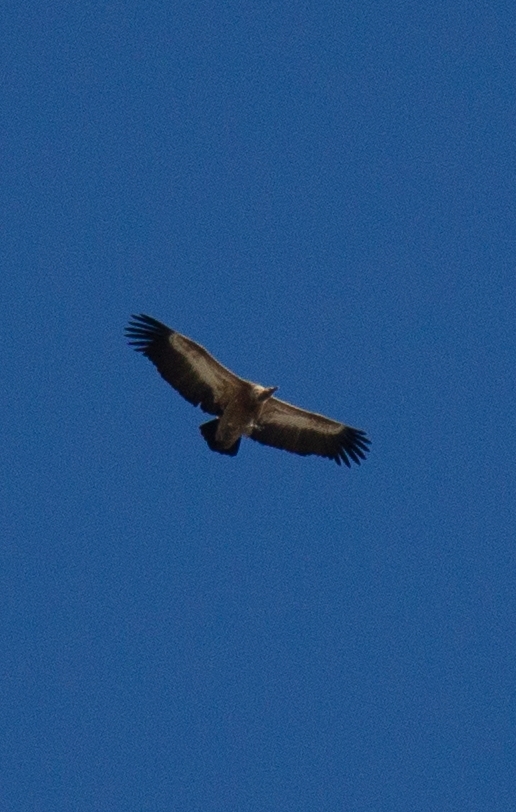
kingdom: Animalia
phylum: Chordata
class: Aves
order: Accipitriformes
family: Accipitridae
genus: Gyps
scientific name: Gyps fulvus
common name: Griffon vulture
